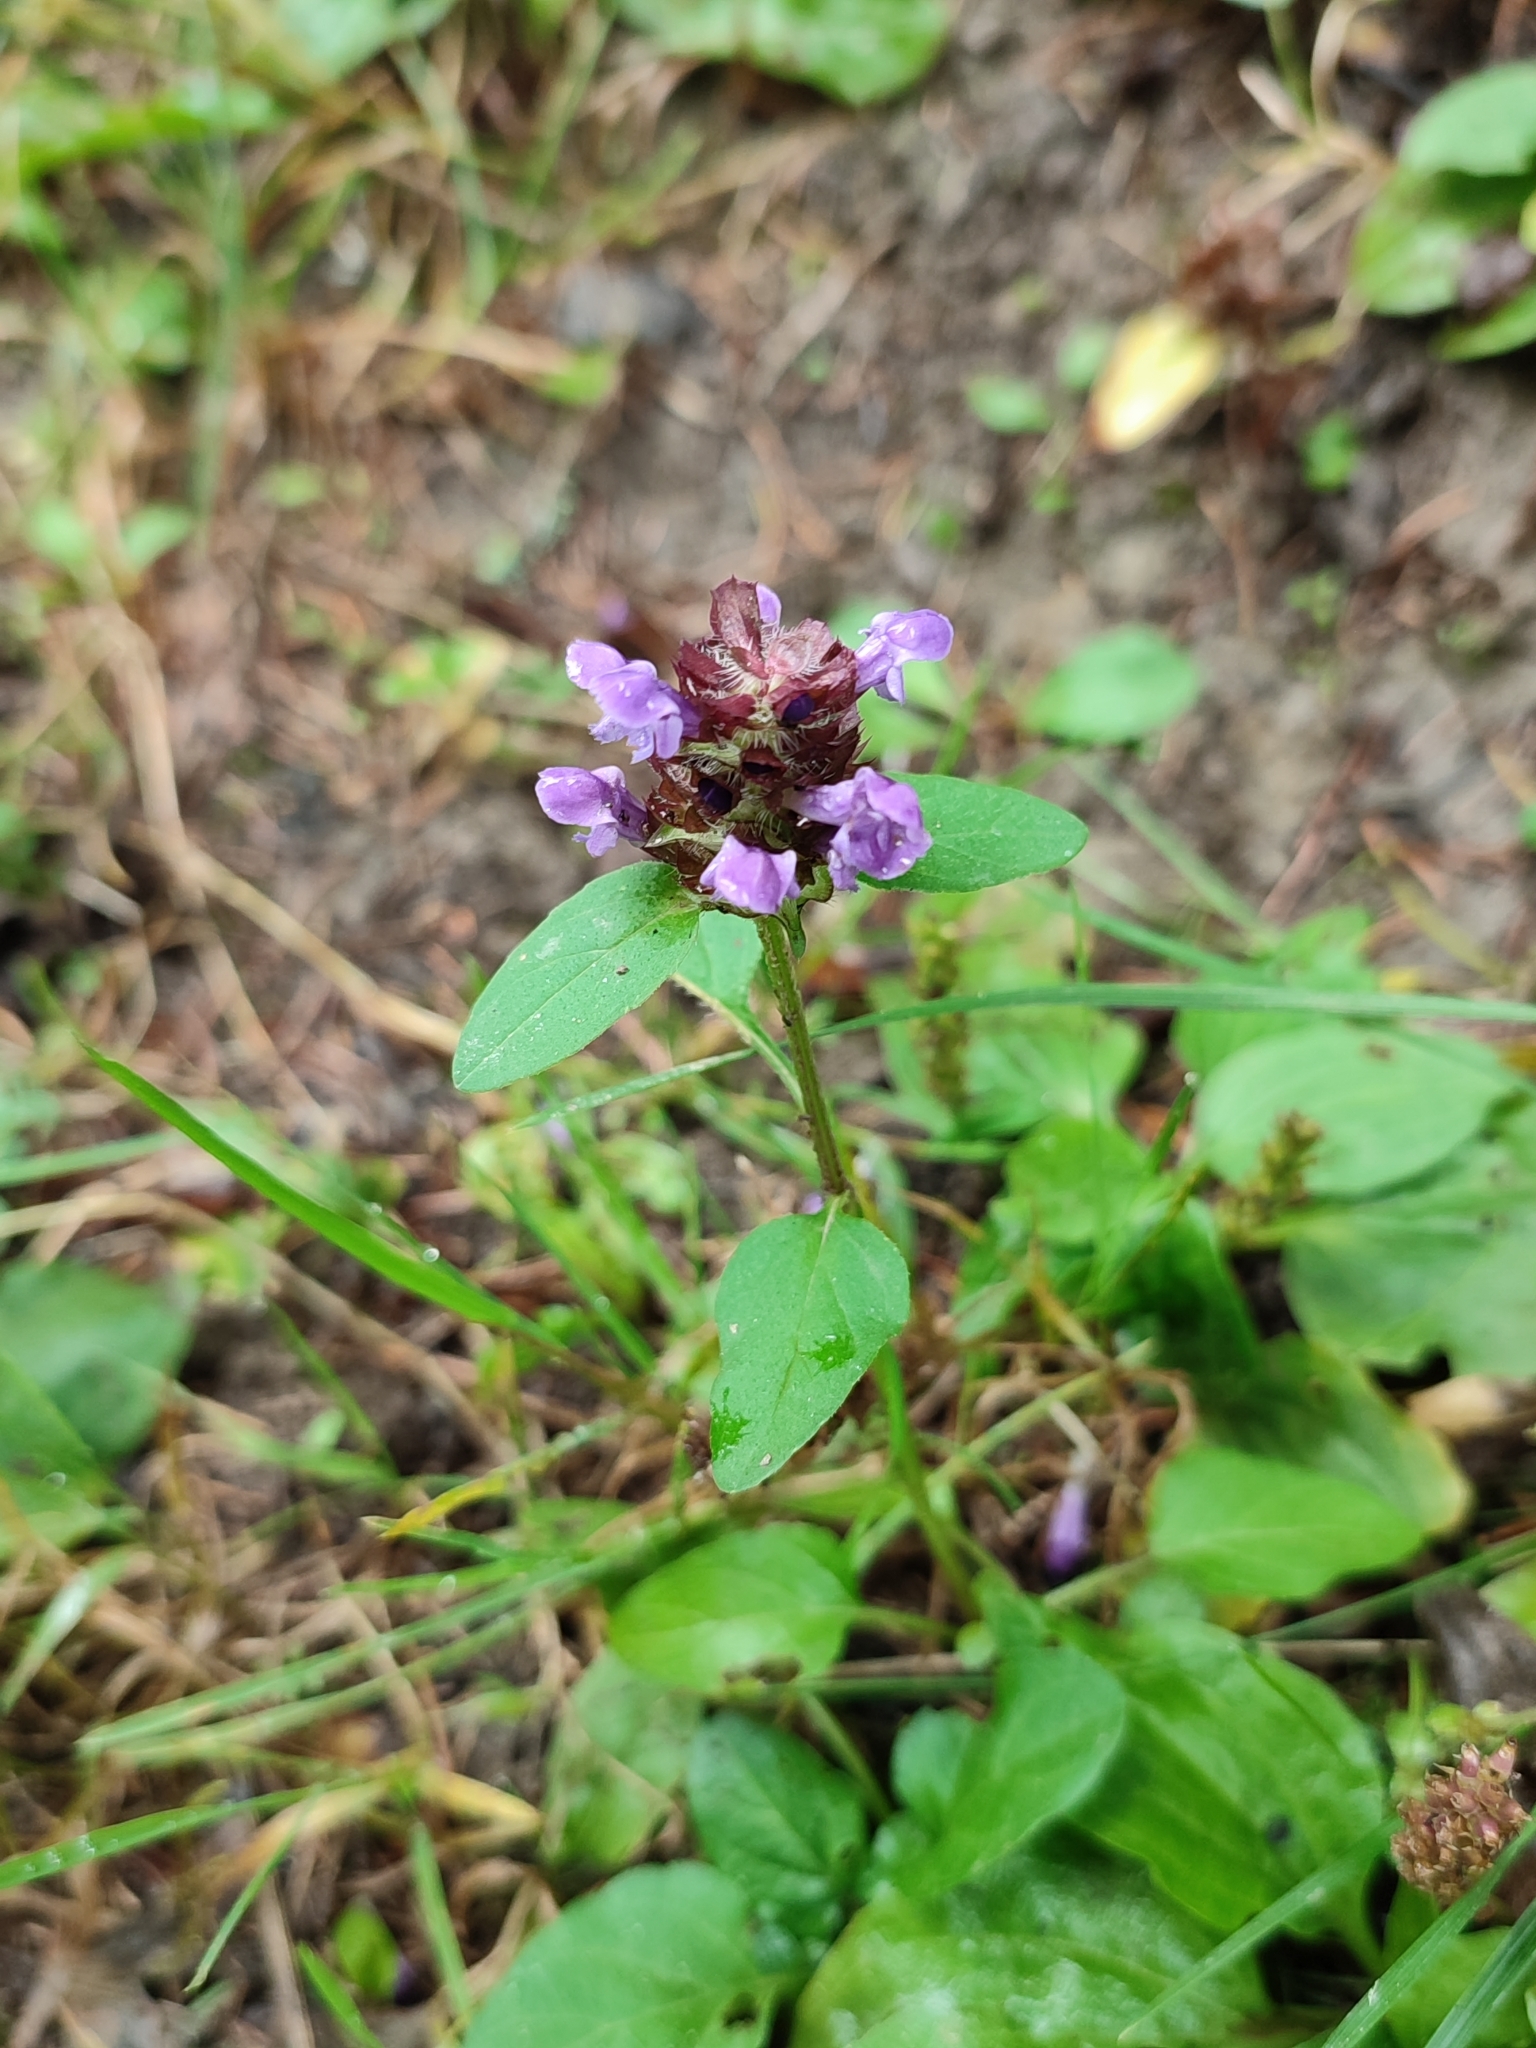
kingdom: Plantae
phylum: Tracheophyta
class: Magnoliopsida
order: Lamiales
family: Lamiaceae
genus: Prunella
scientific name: Prunella vulgaris
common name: Heal-all
